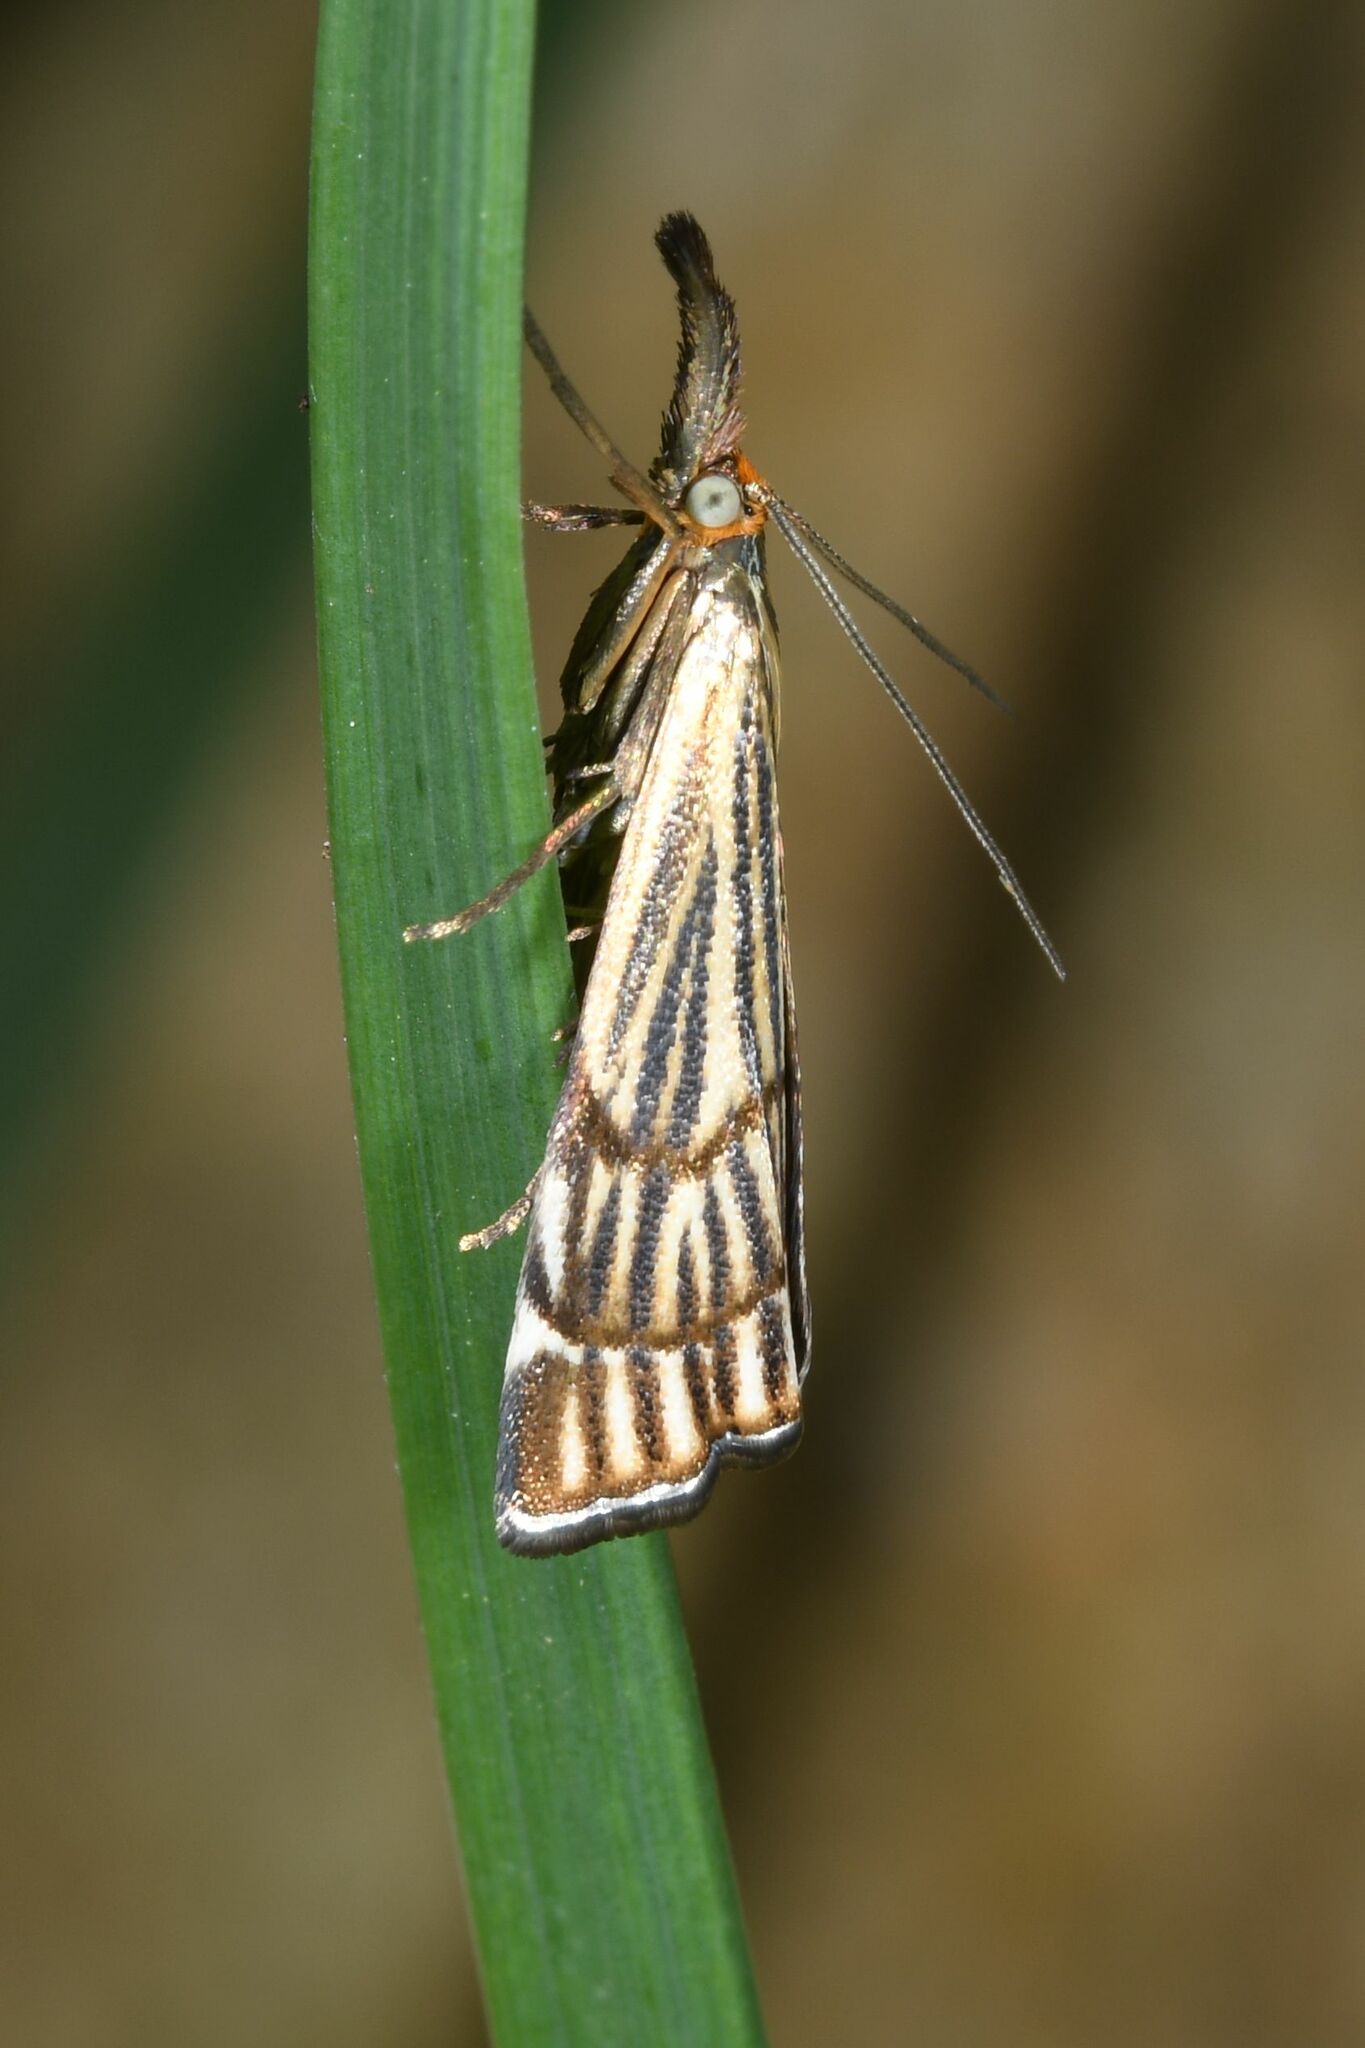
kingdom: Animalia
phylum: Arthropoda
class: Insecta
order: Lepidoptera
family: Crambidae
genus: Chrysocrambus
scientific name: Chrysocrambus Chrysocramboides craterellus
